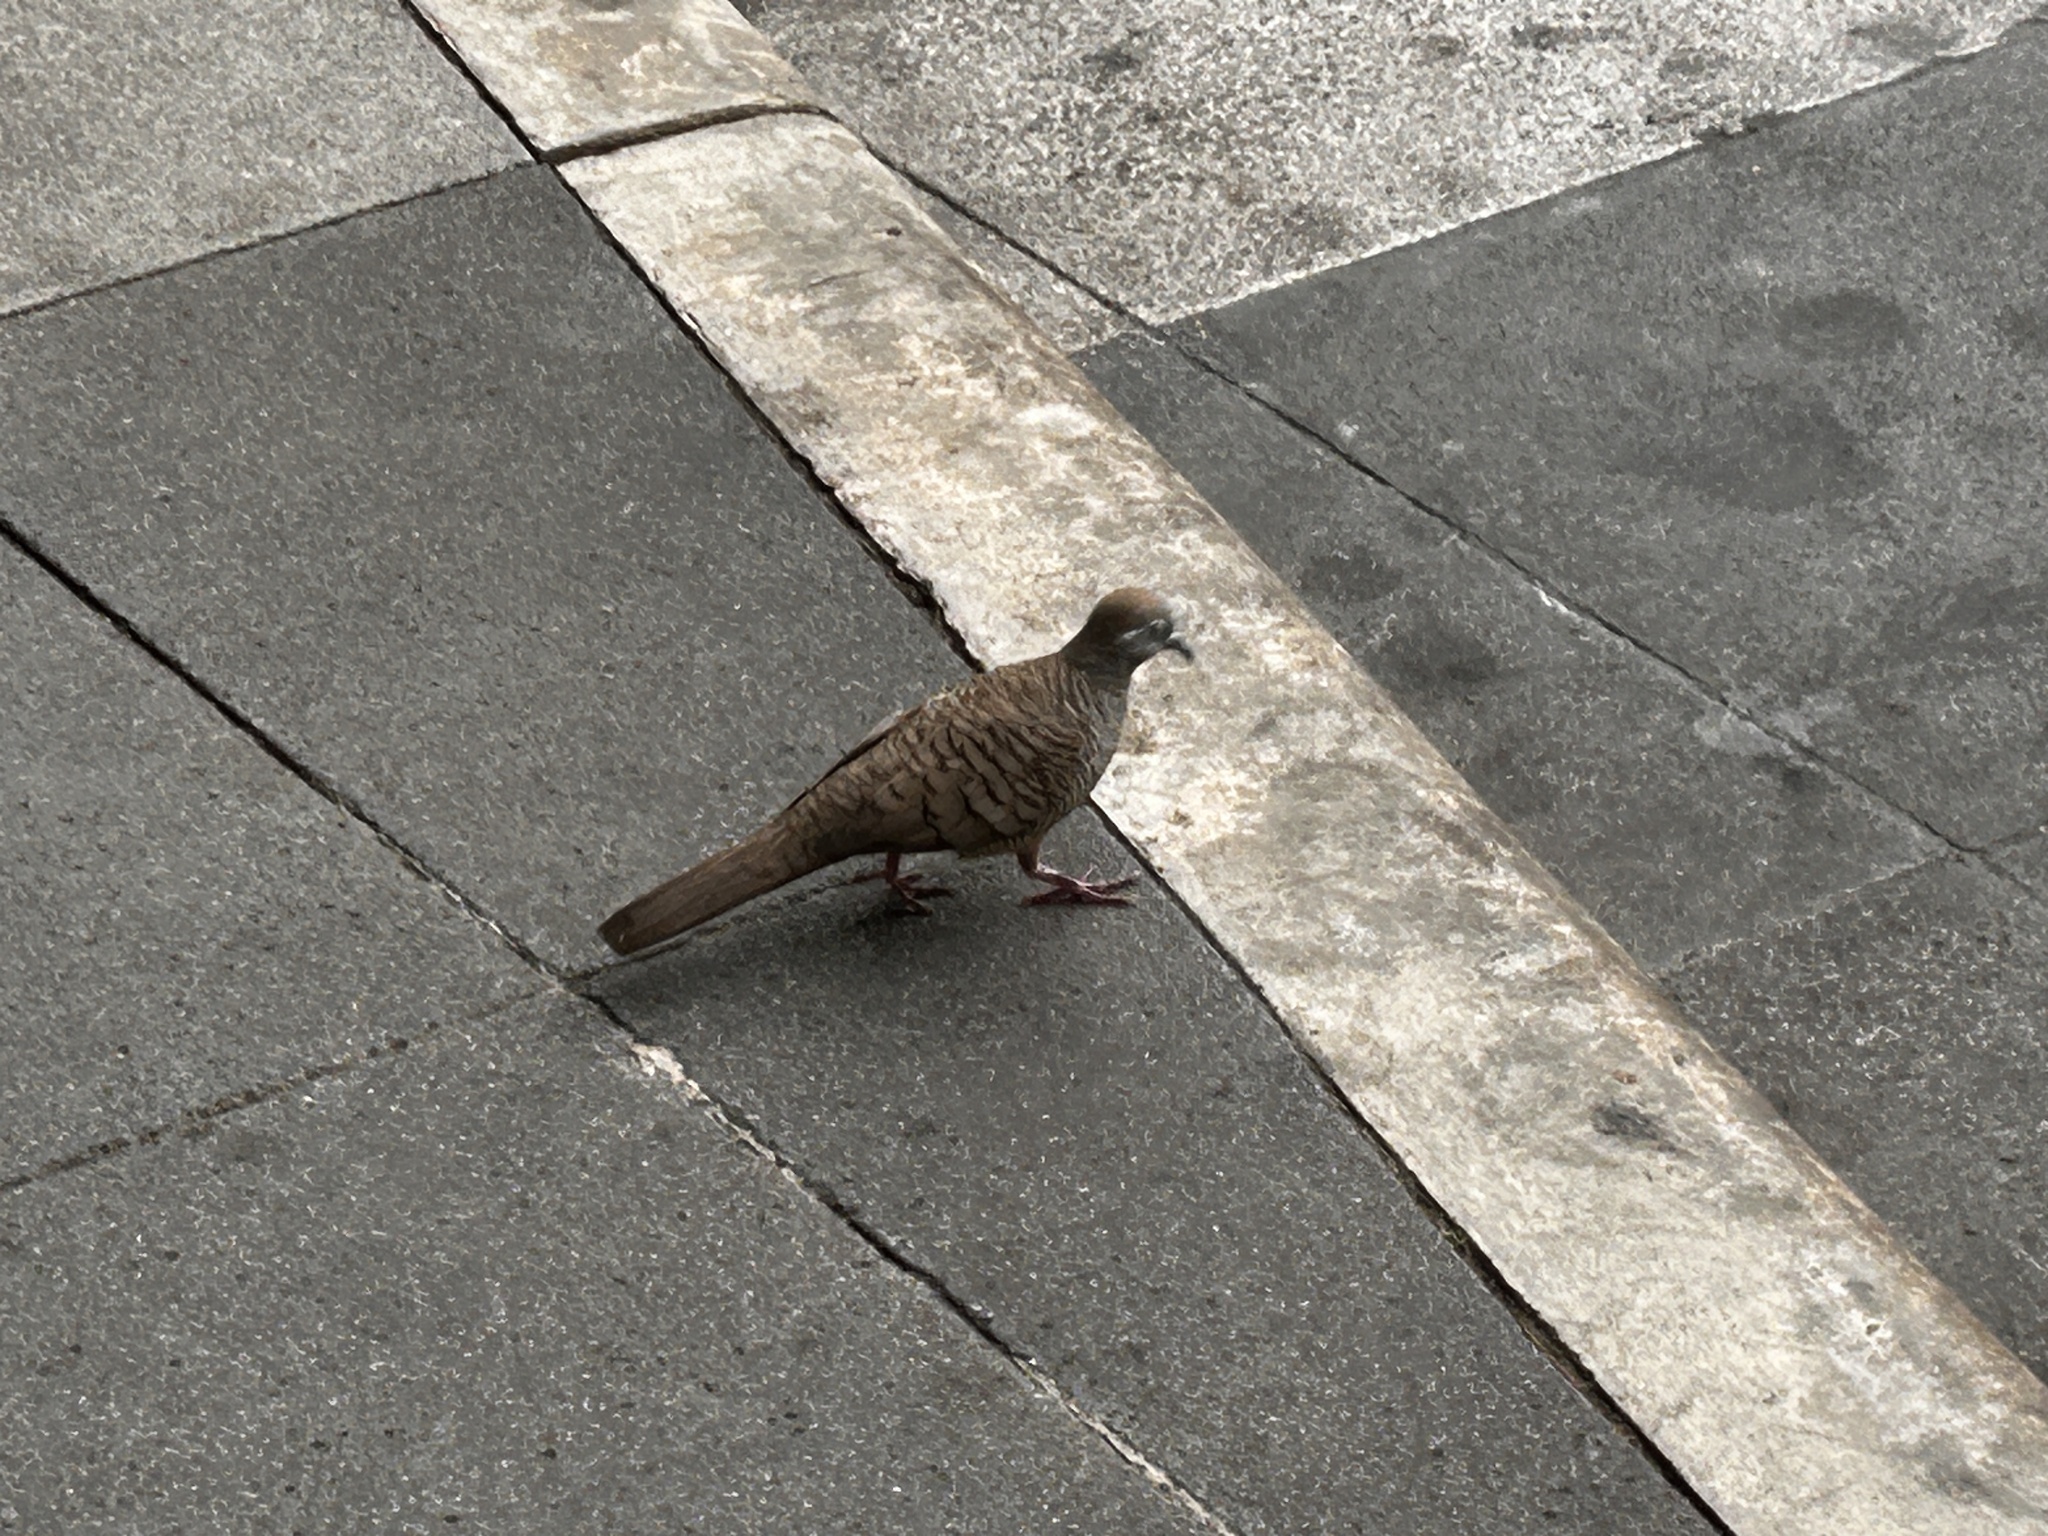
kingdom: Animalia
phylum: Chordata
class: Aves
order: Columbiformes
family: Columbidae
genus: Geopelia
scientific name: Geopelia striata
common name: Zebra dove
